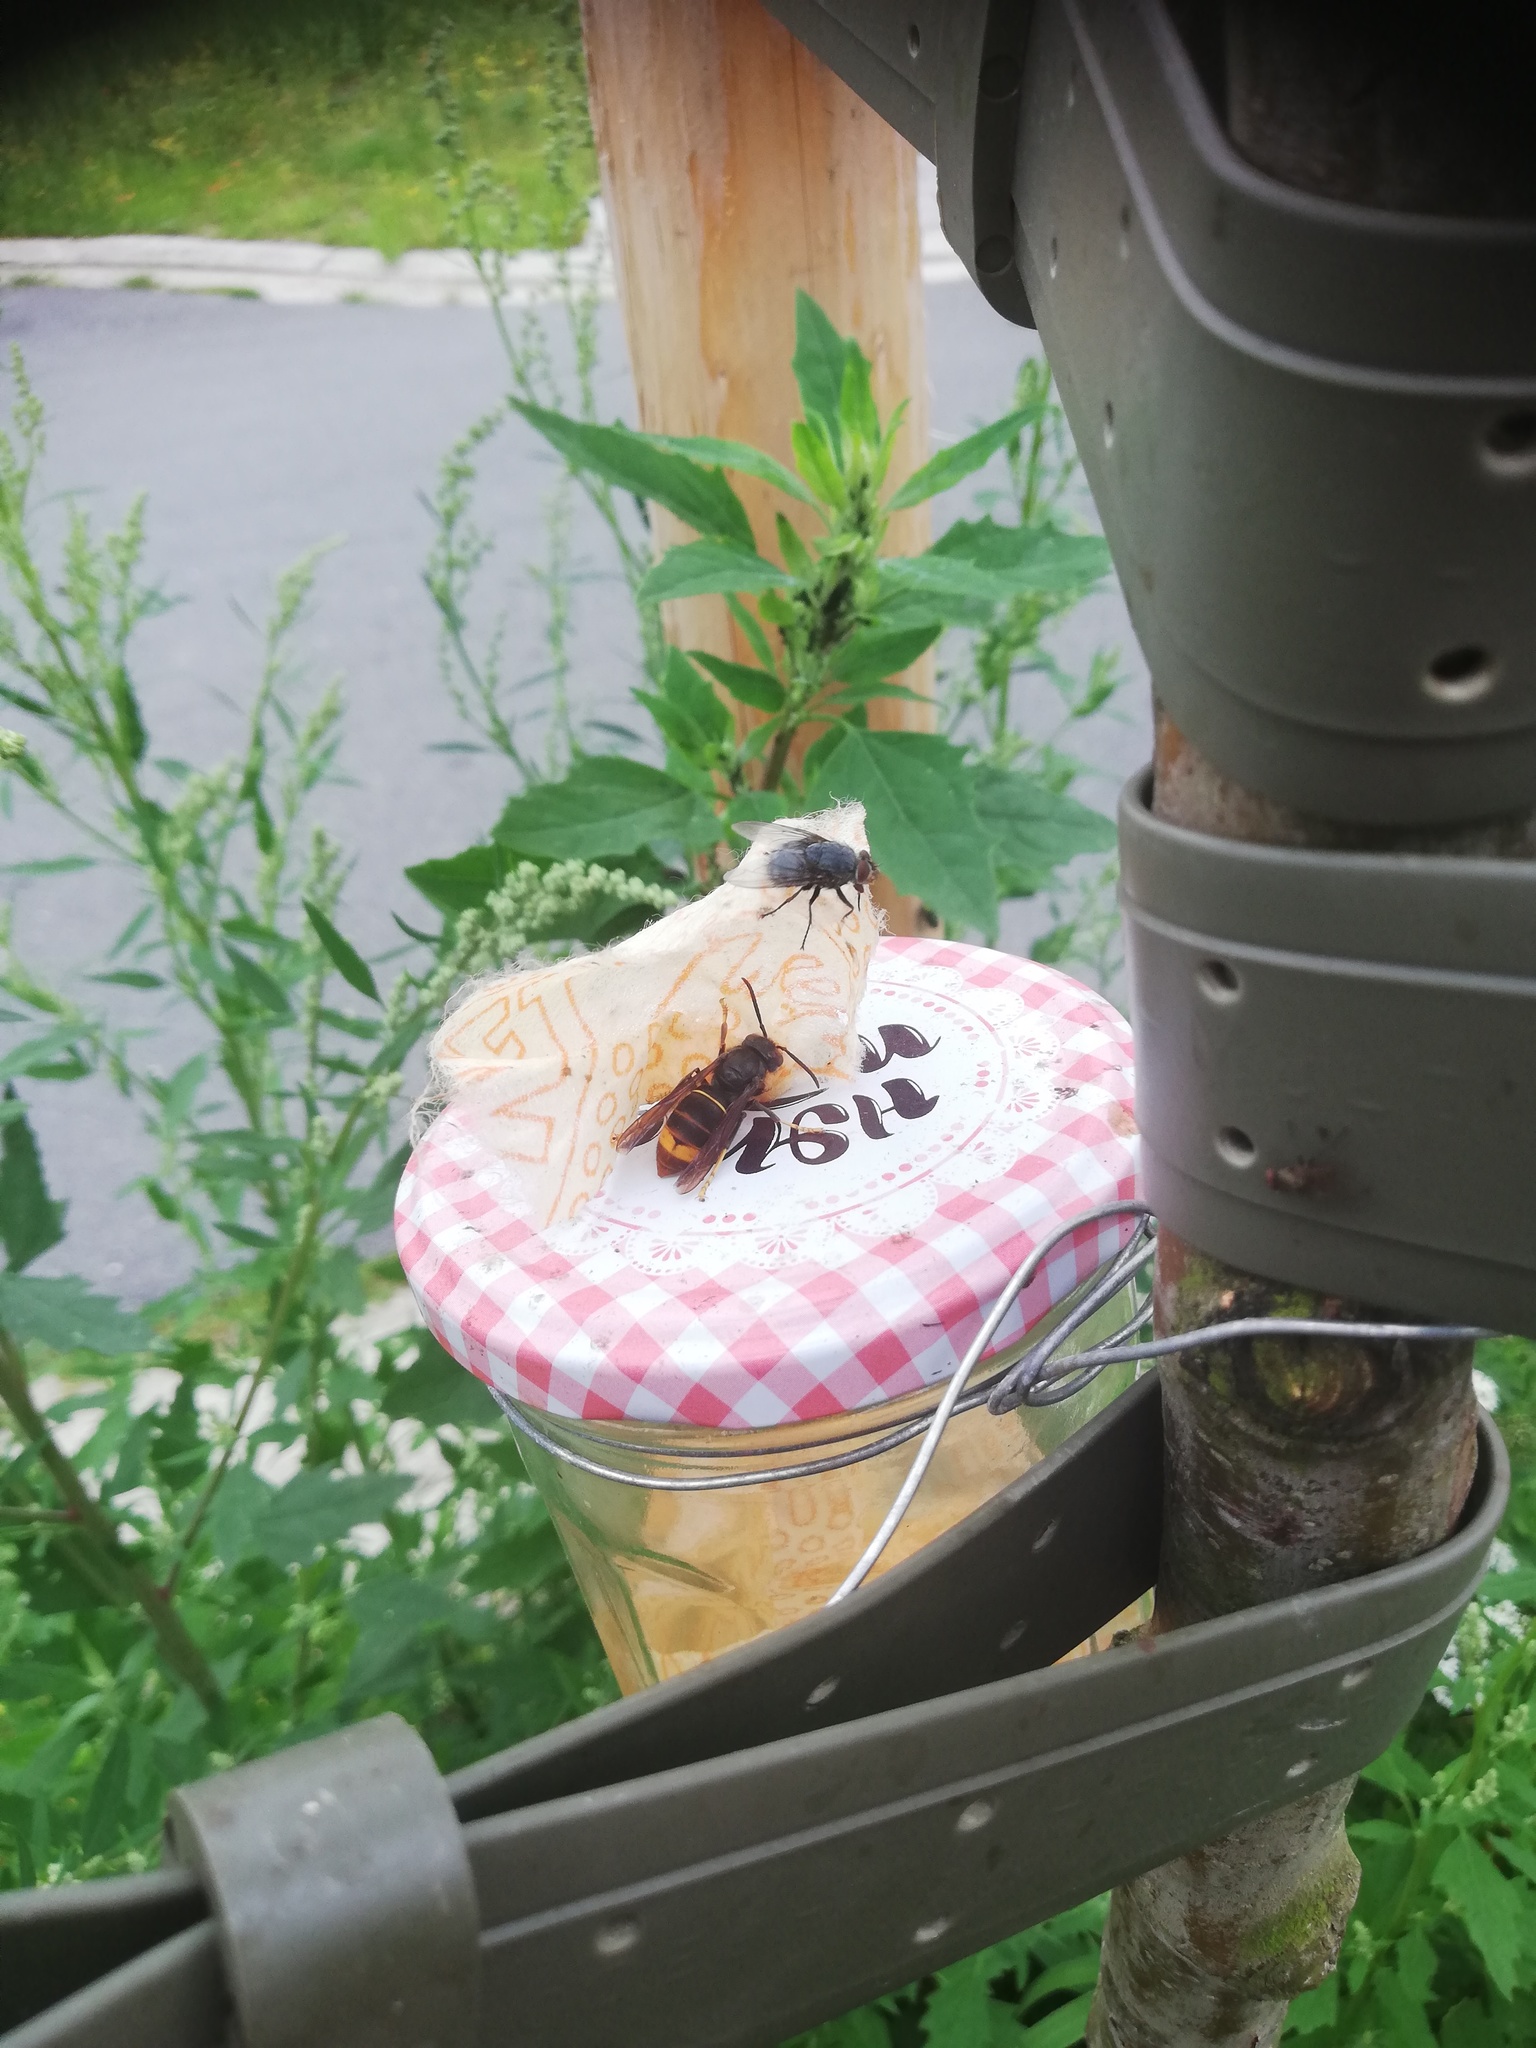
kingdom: Animalia
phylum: Arthropoda
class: Insecta
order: Hymenoptera
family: Vespidae
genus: Vespa
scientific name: Vespa velutina
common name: Asian hornet
